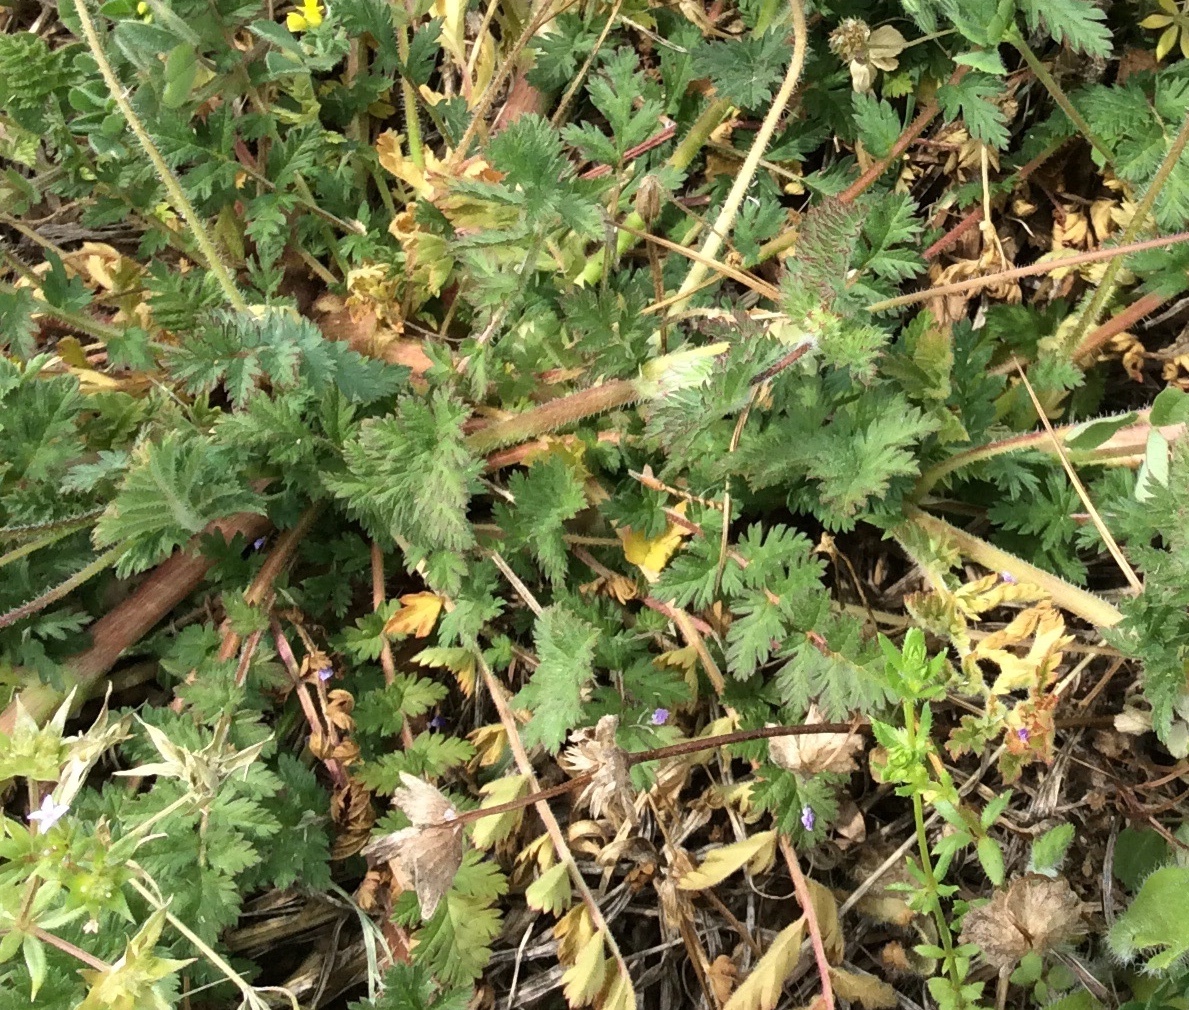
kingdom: Plantae
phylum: Tracheophyta
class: Magnoliopsida
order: Geraniales
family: Geraniaceae
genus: Erodium
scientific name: Erodium cicutarium
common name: Common stork's-bill
